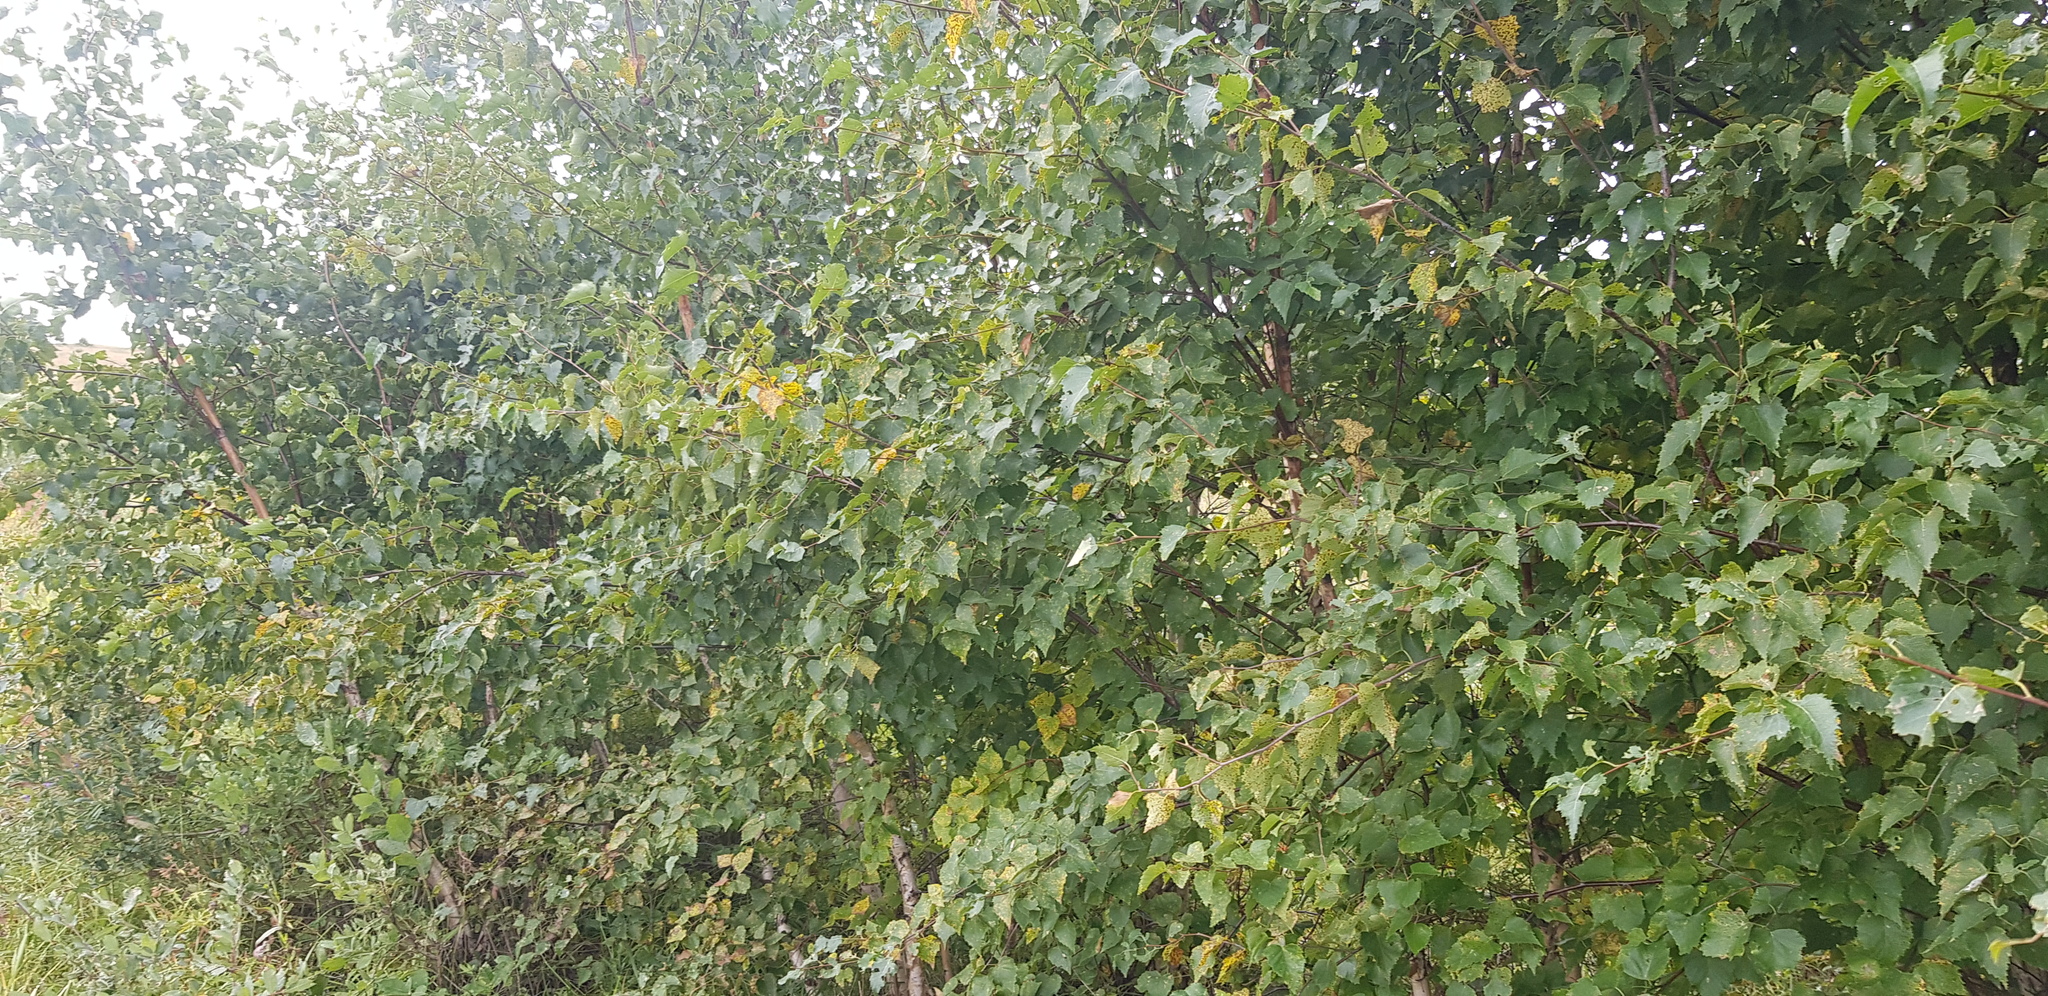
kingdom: Plantae
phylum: Tracheophyta
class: Magnoliopsida
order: Fagales
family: Betulaceae
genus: Betula
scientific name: Betula pendula
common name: Silver birch
